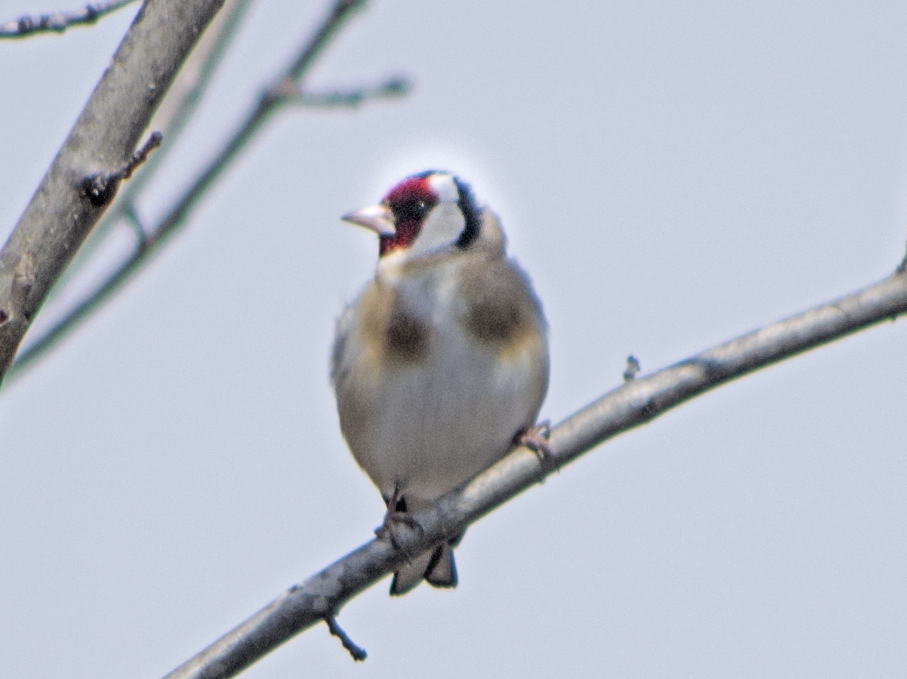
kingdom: Animalia
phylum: Chordata
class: Aves
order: Passeriformes
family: Fringillidae
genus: Carduelis
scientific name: Carduelis carduelis
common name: European goldfinch
